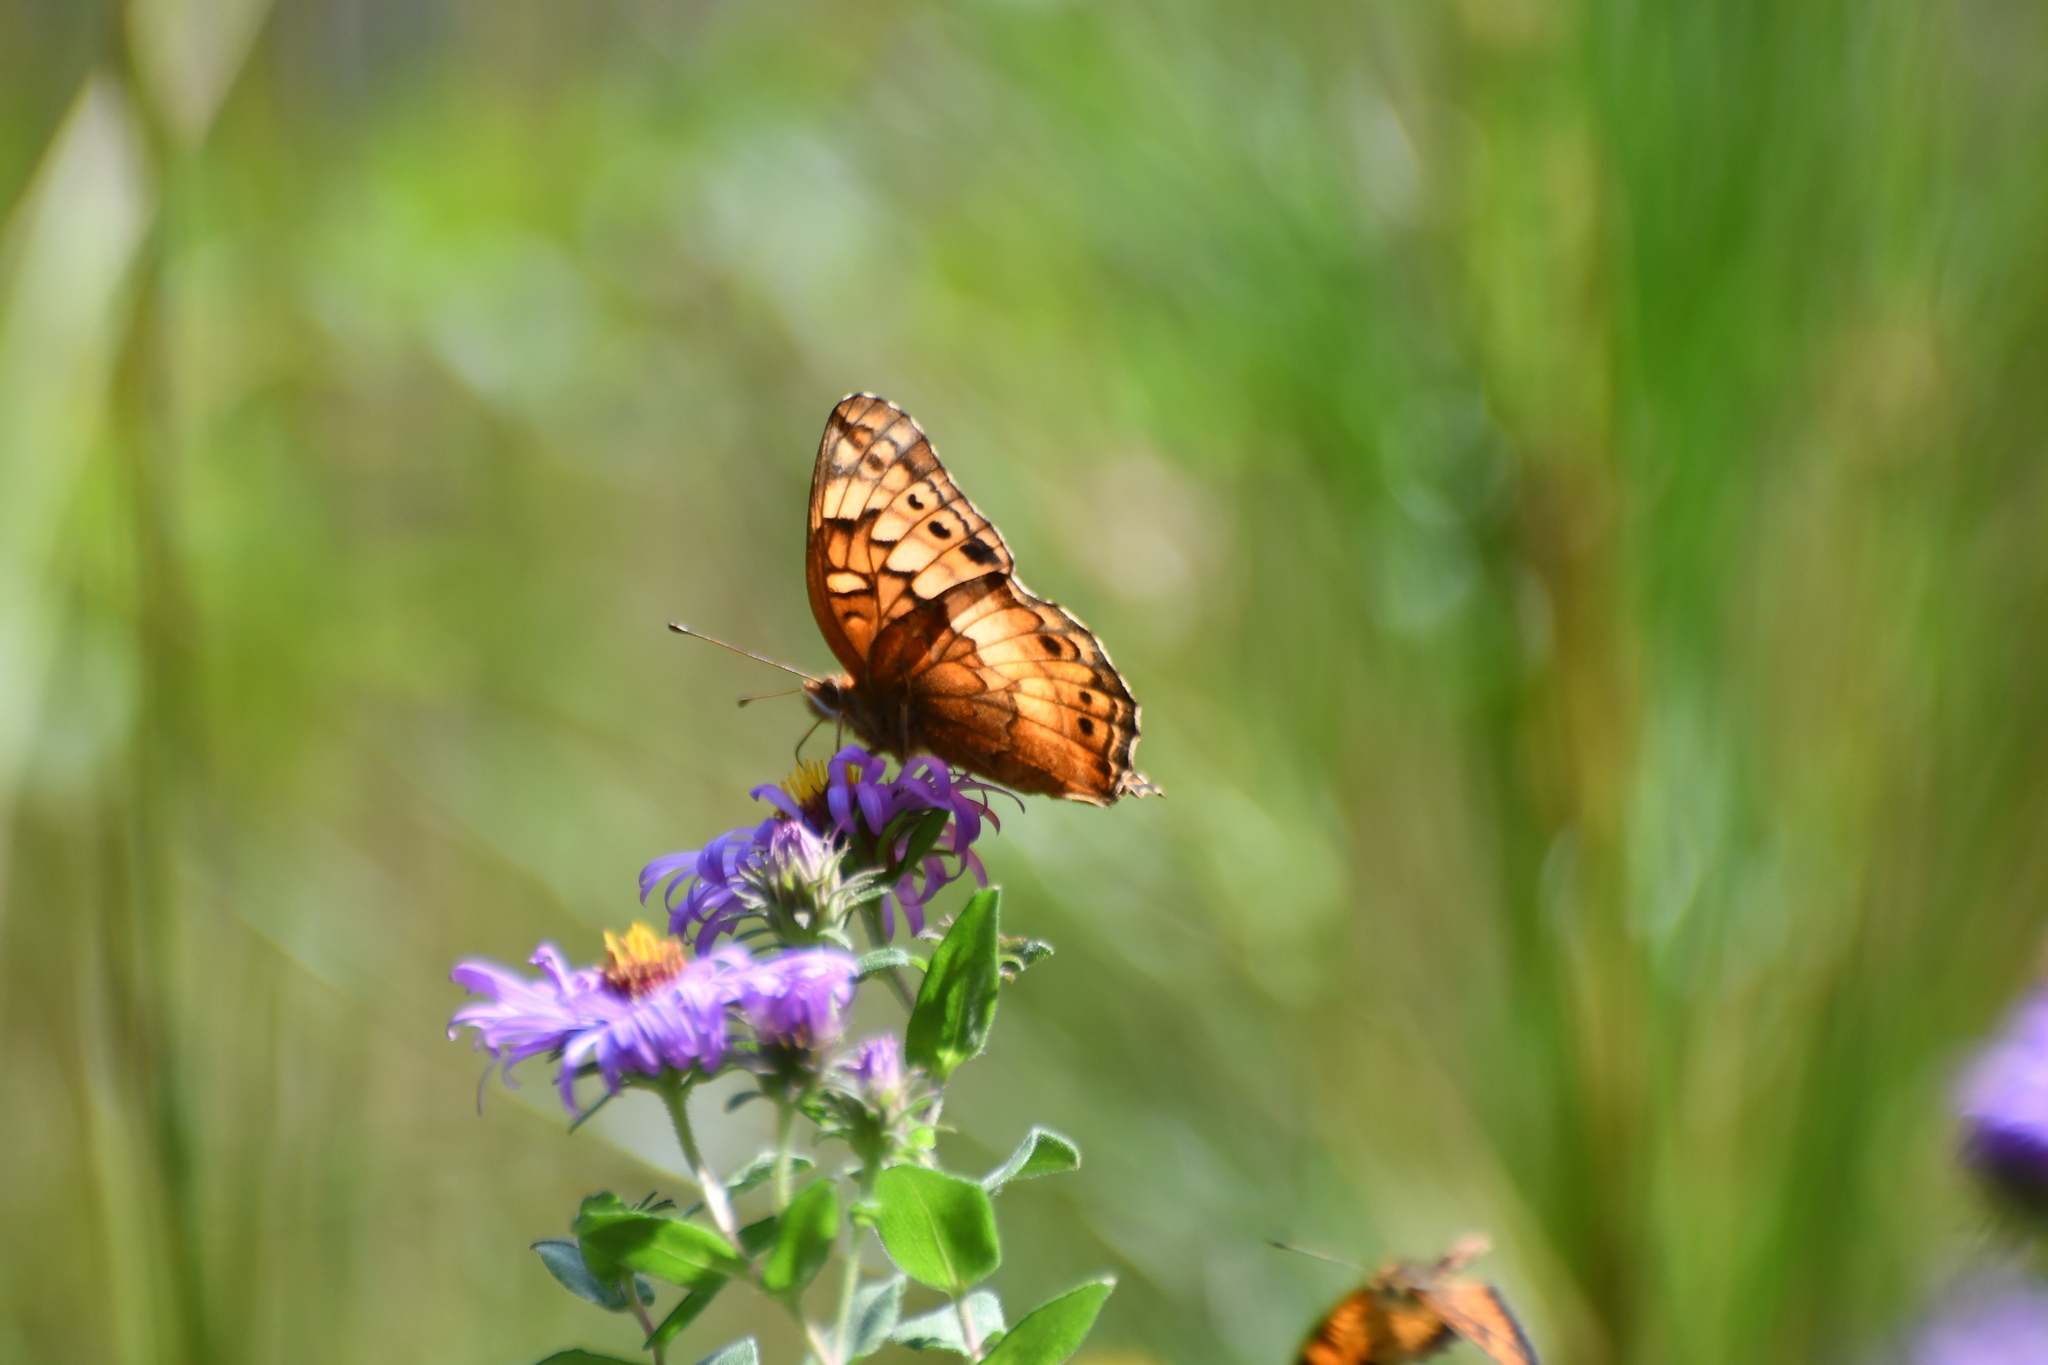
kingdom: Animalia
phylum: Arthropoda
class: Insecta
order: Lepidoptera
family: Nymphalidae
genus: Euptoieta
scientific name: Euptoieta claudia
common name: Variegated fritillary
